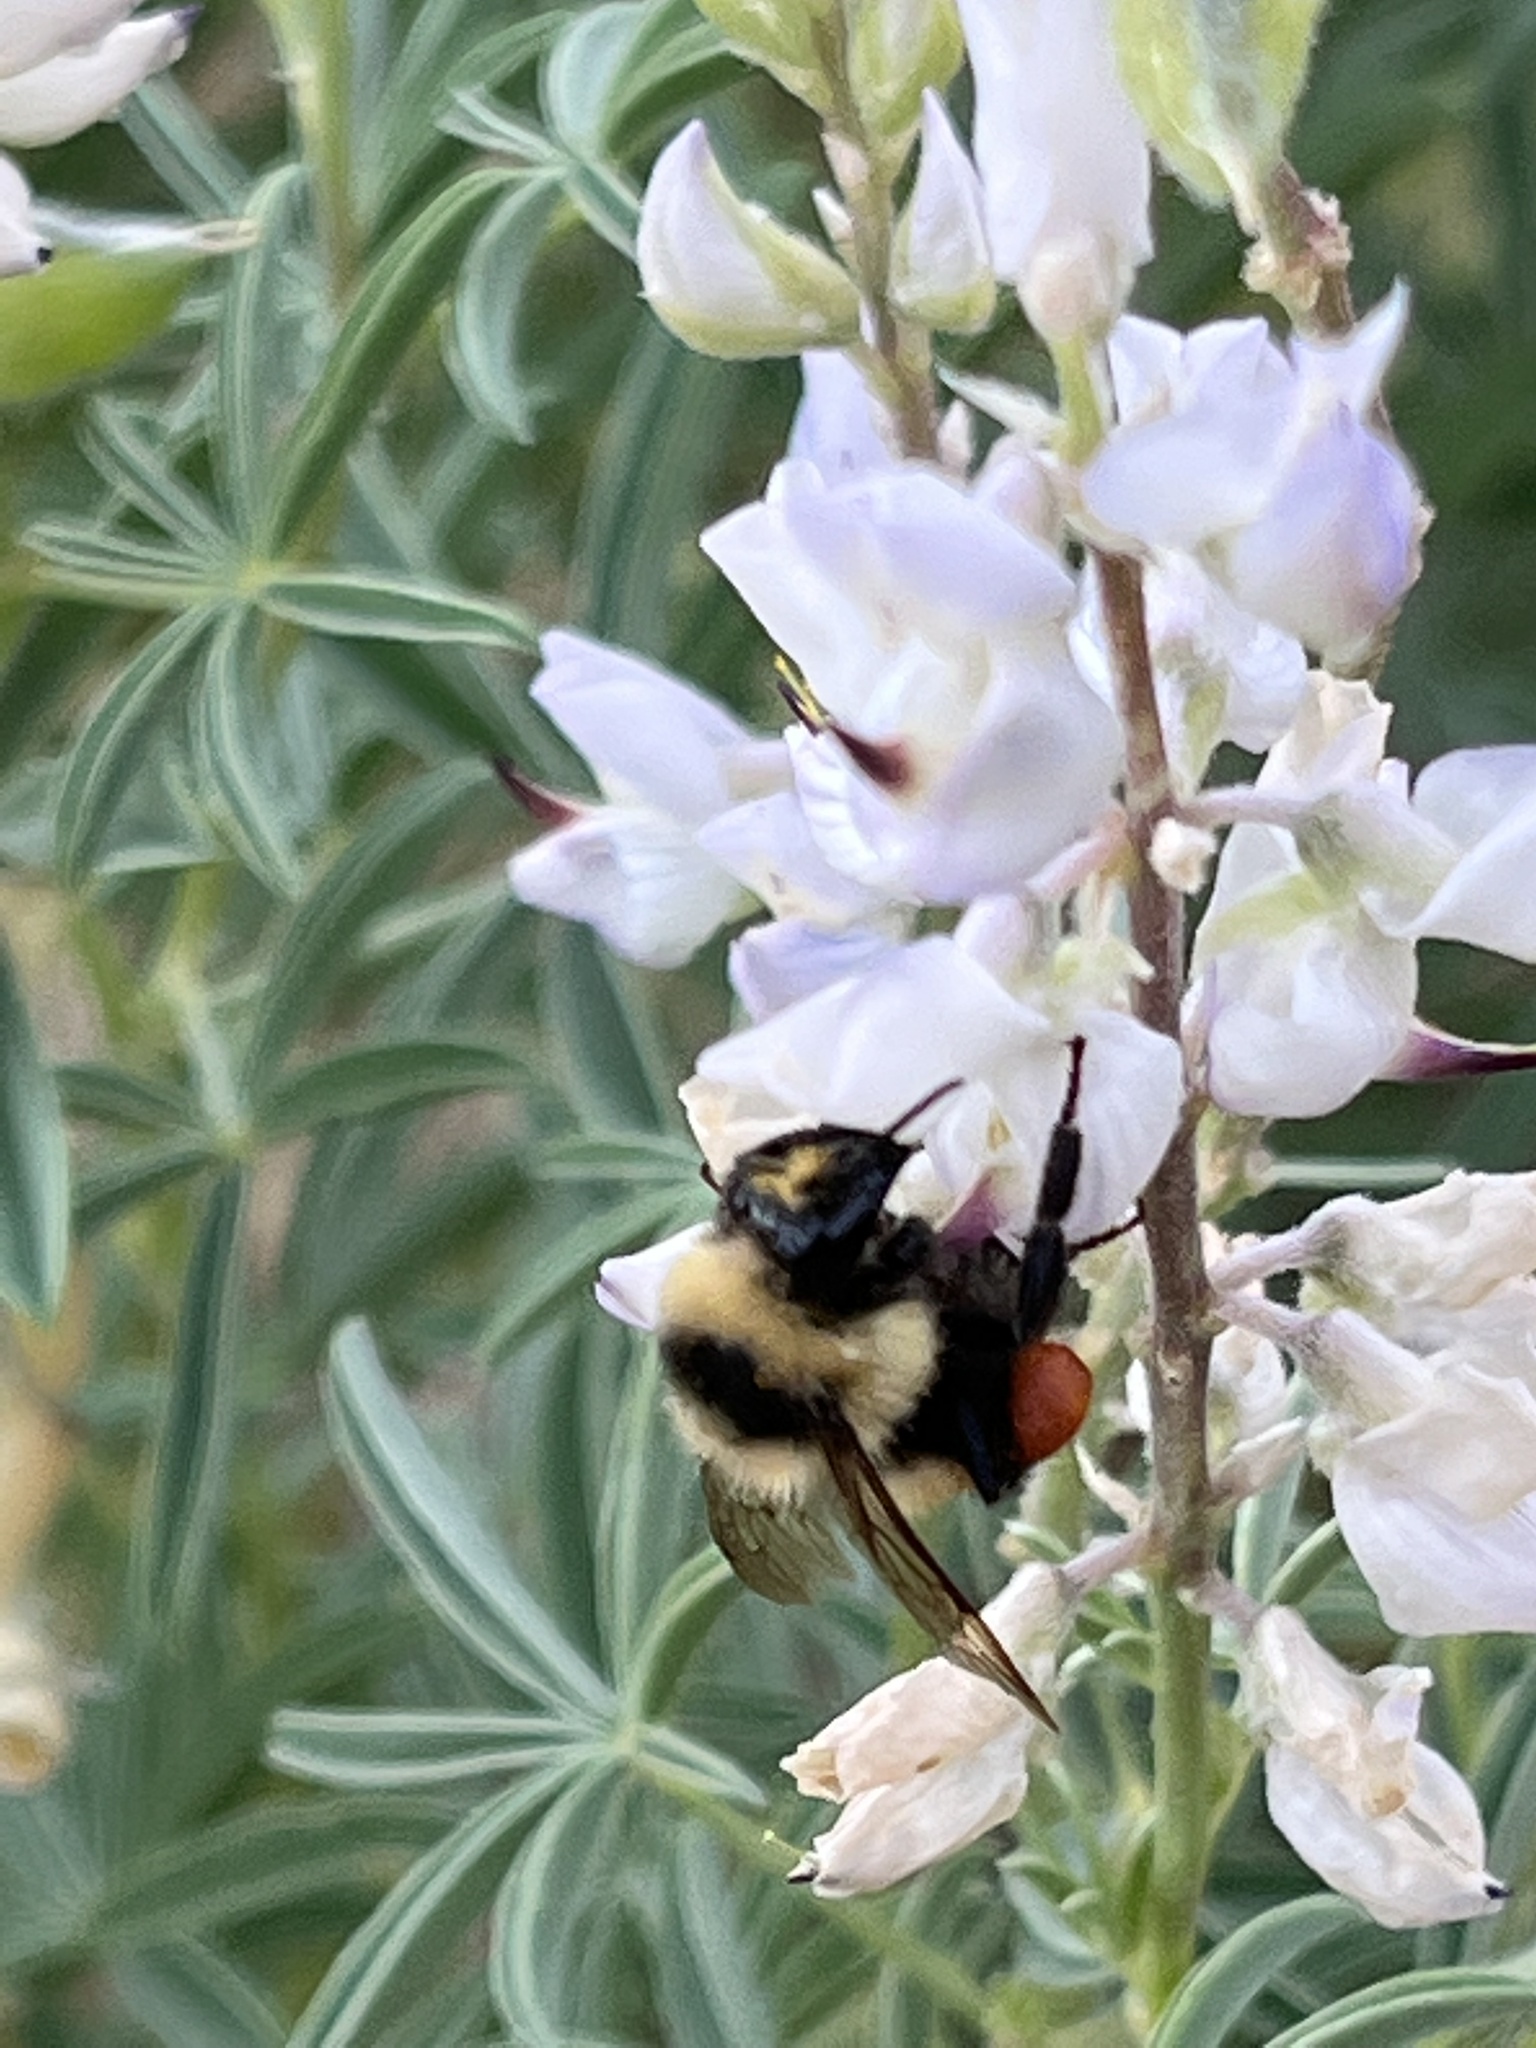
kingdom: Animalia
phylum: Arthropoda
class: Insecta
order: Hymenoptera
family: Apidae
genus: Bombus
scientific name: Bombus huntii
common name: Hunt bumble bee
